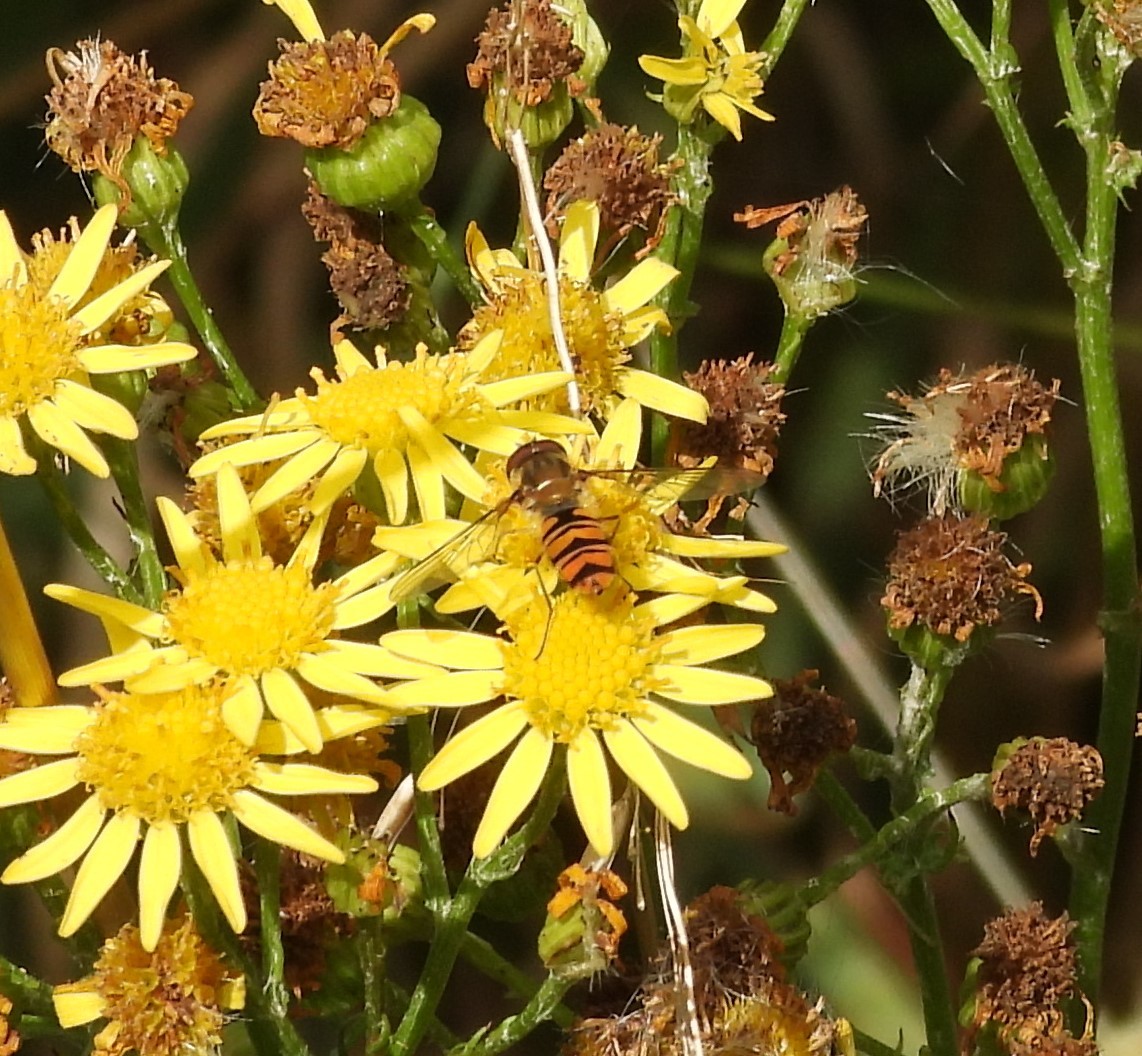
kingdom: Animalia
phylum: Arthropoda
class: Insecta
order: Diptera
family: Syrphidae
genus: Episyrphus
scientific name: Episyrphus balteatus
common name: Marmalade hoverfly
